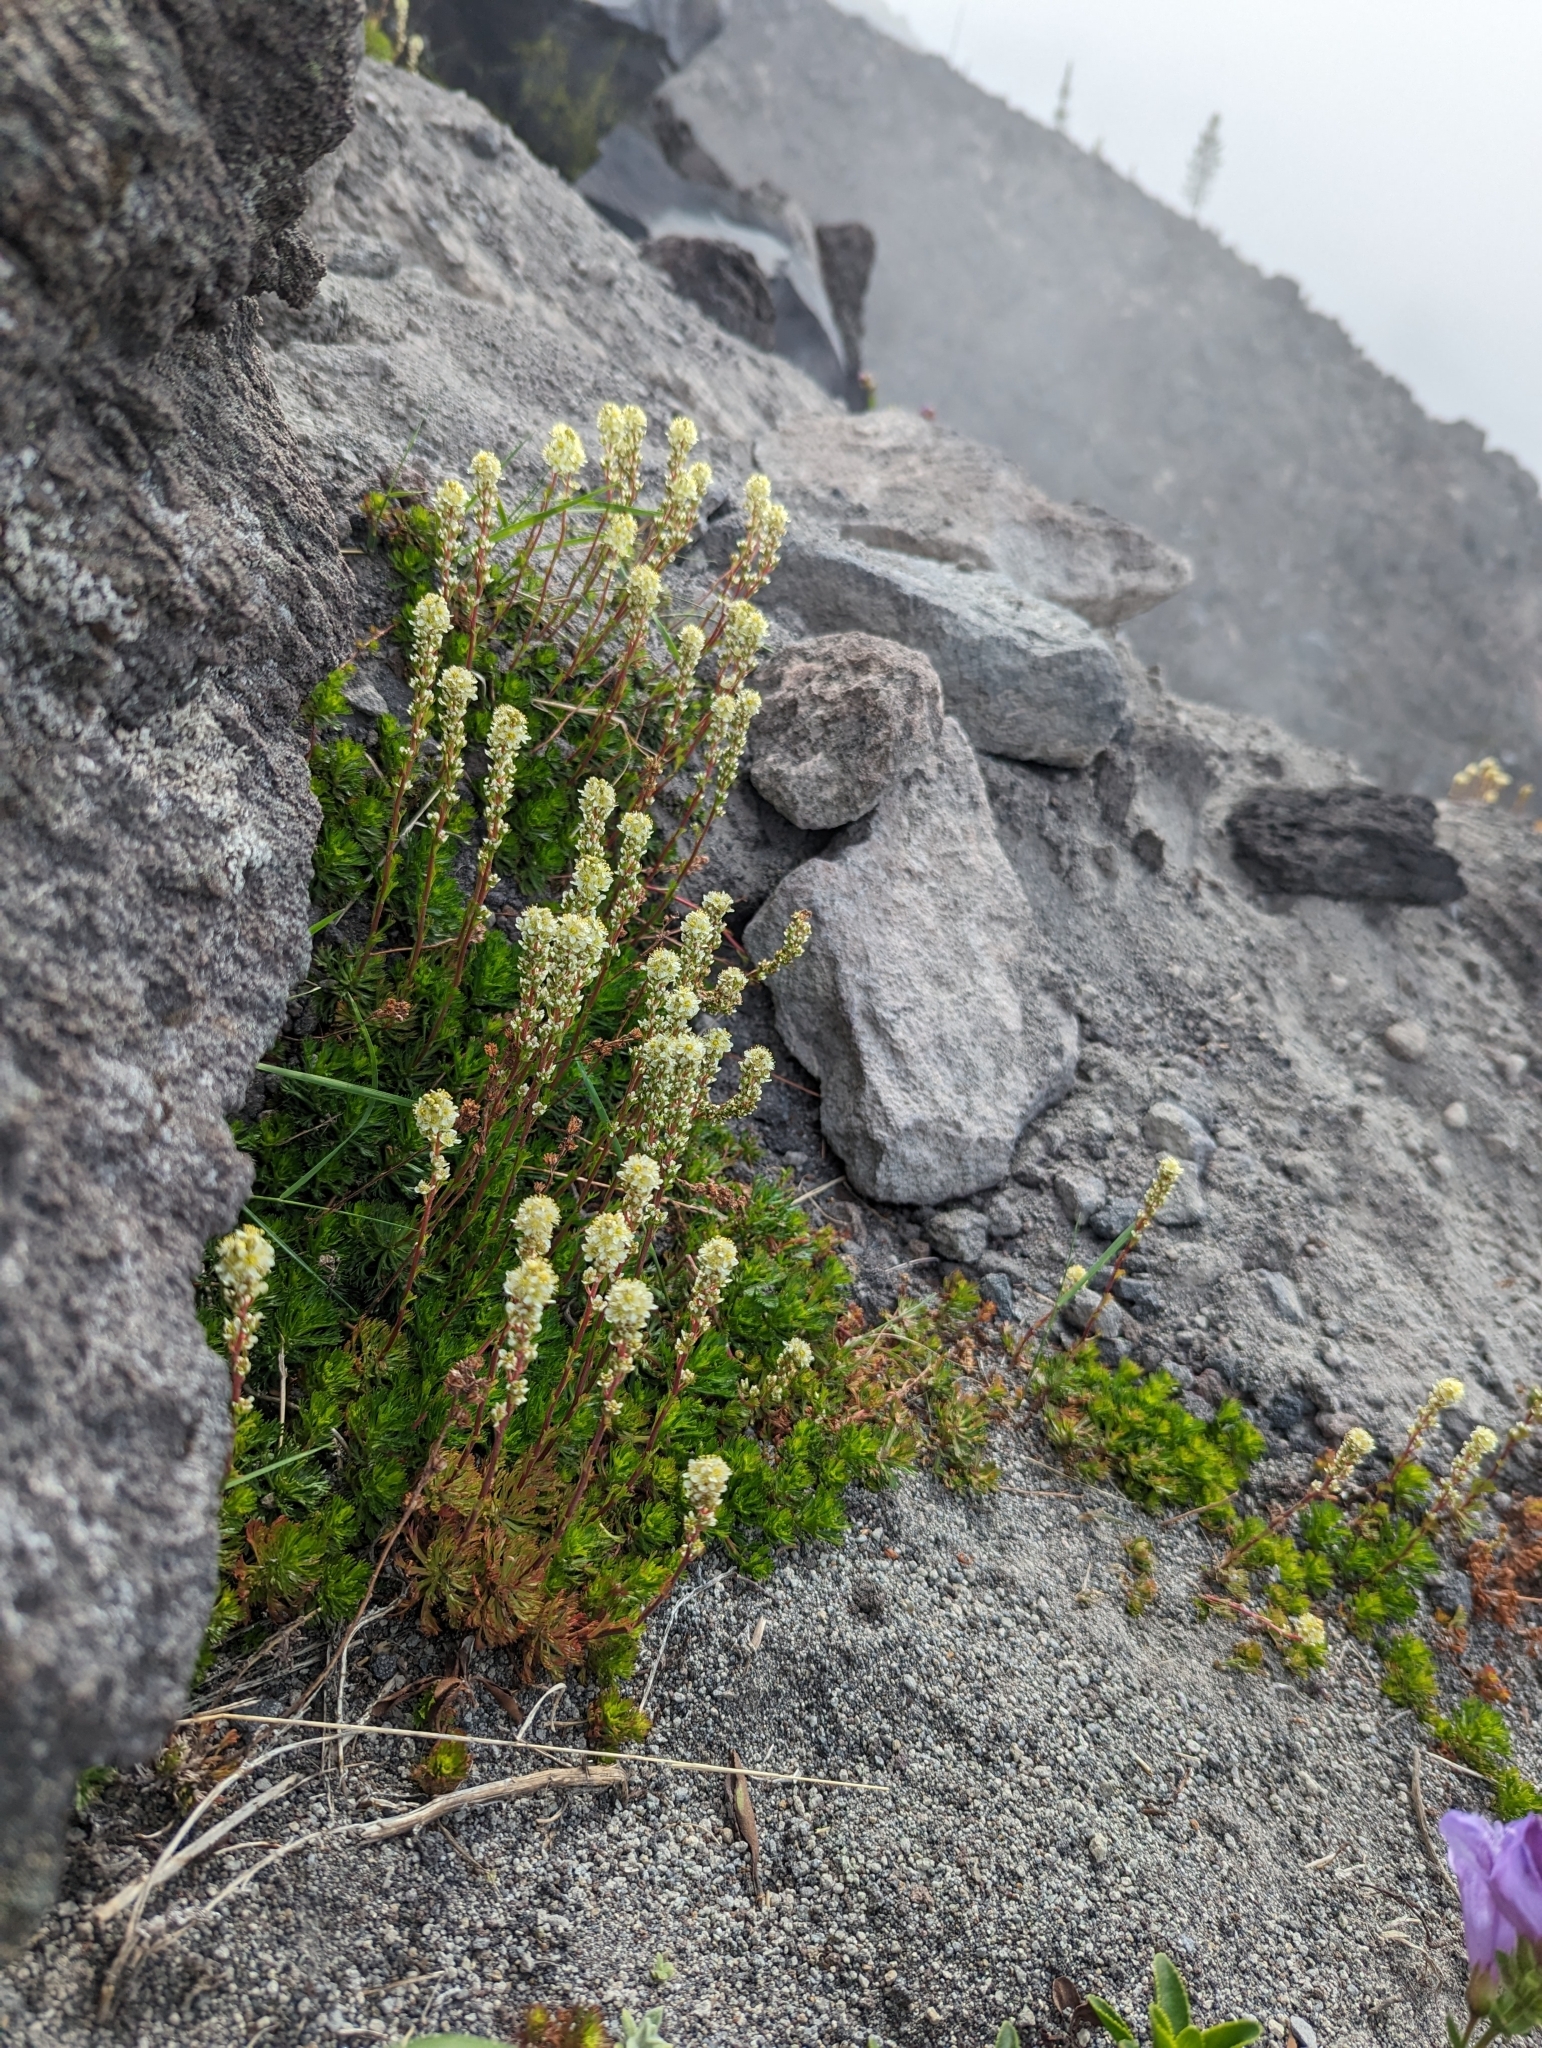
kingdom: Plantae
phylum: Tracheophyta
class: Magnoliopsida
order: Rosales
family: Rosaceae
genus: Luetkea
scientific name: Luetkea pectinata
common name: Partridgefoot
